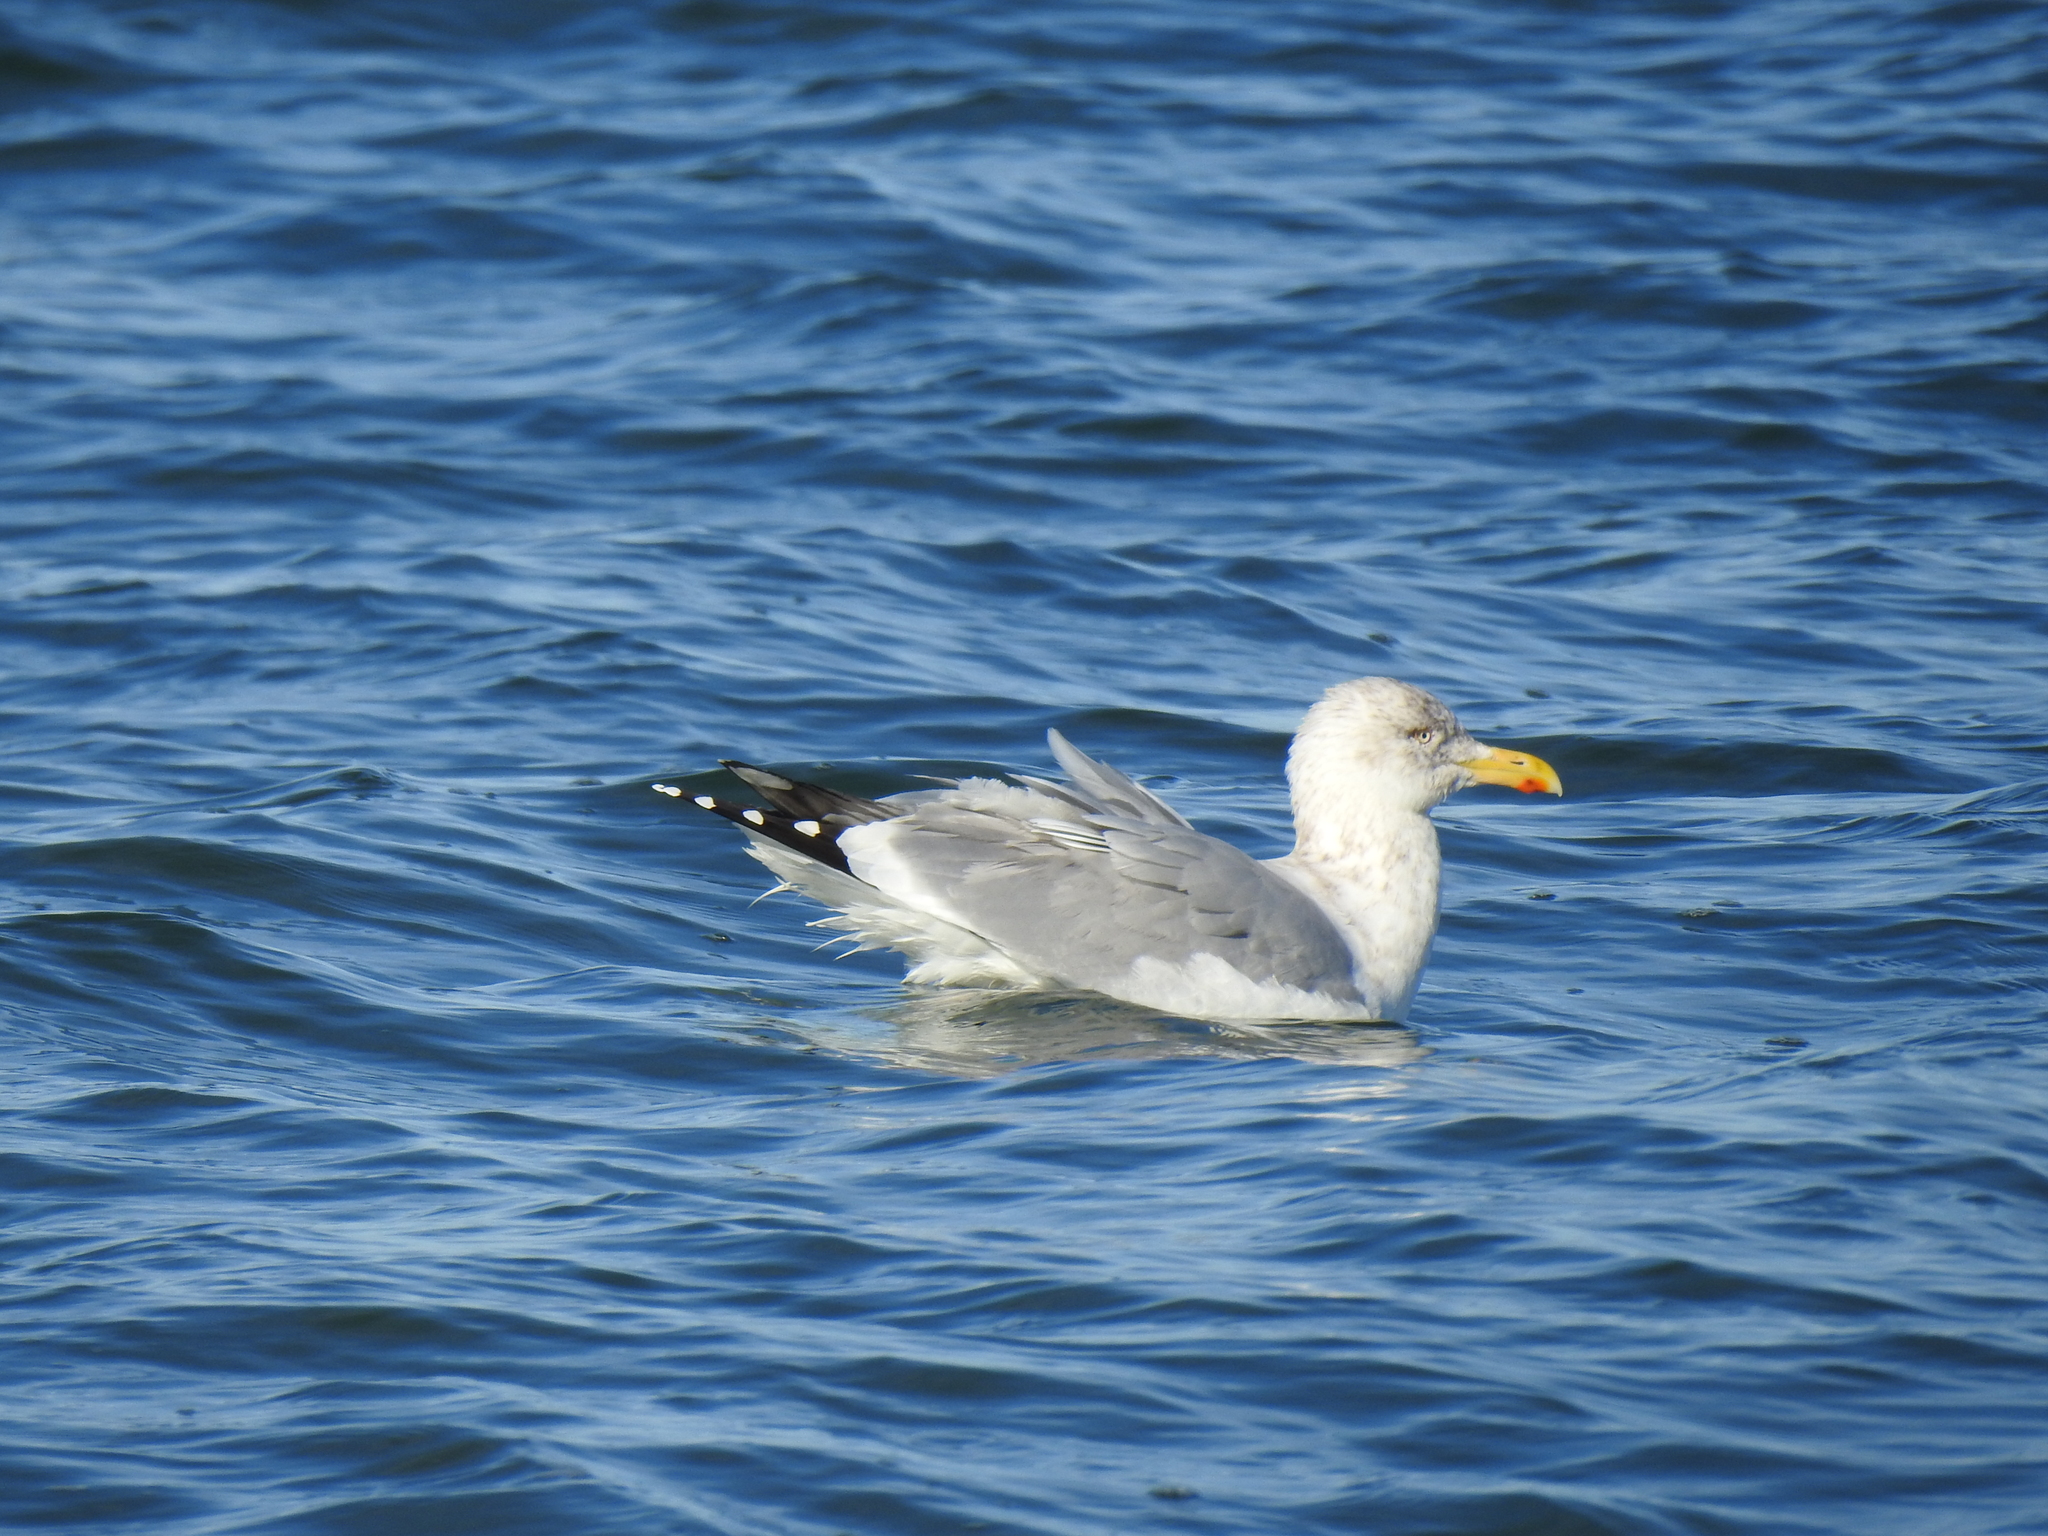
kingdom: Animalia
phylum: Chordata
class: Aves
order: Charadriiformes
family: Laridae
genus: Larus
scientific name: Larus argentatus
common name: Herring gull
